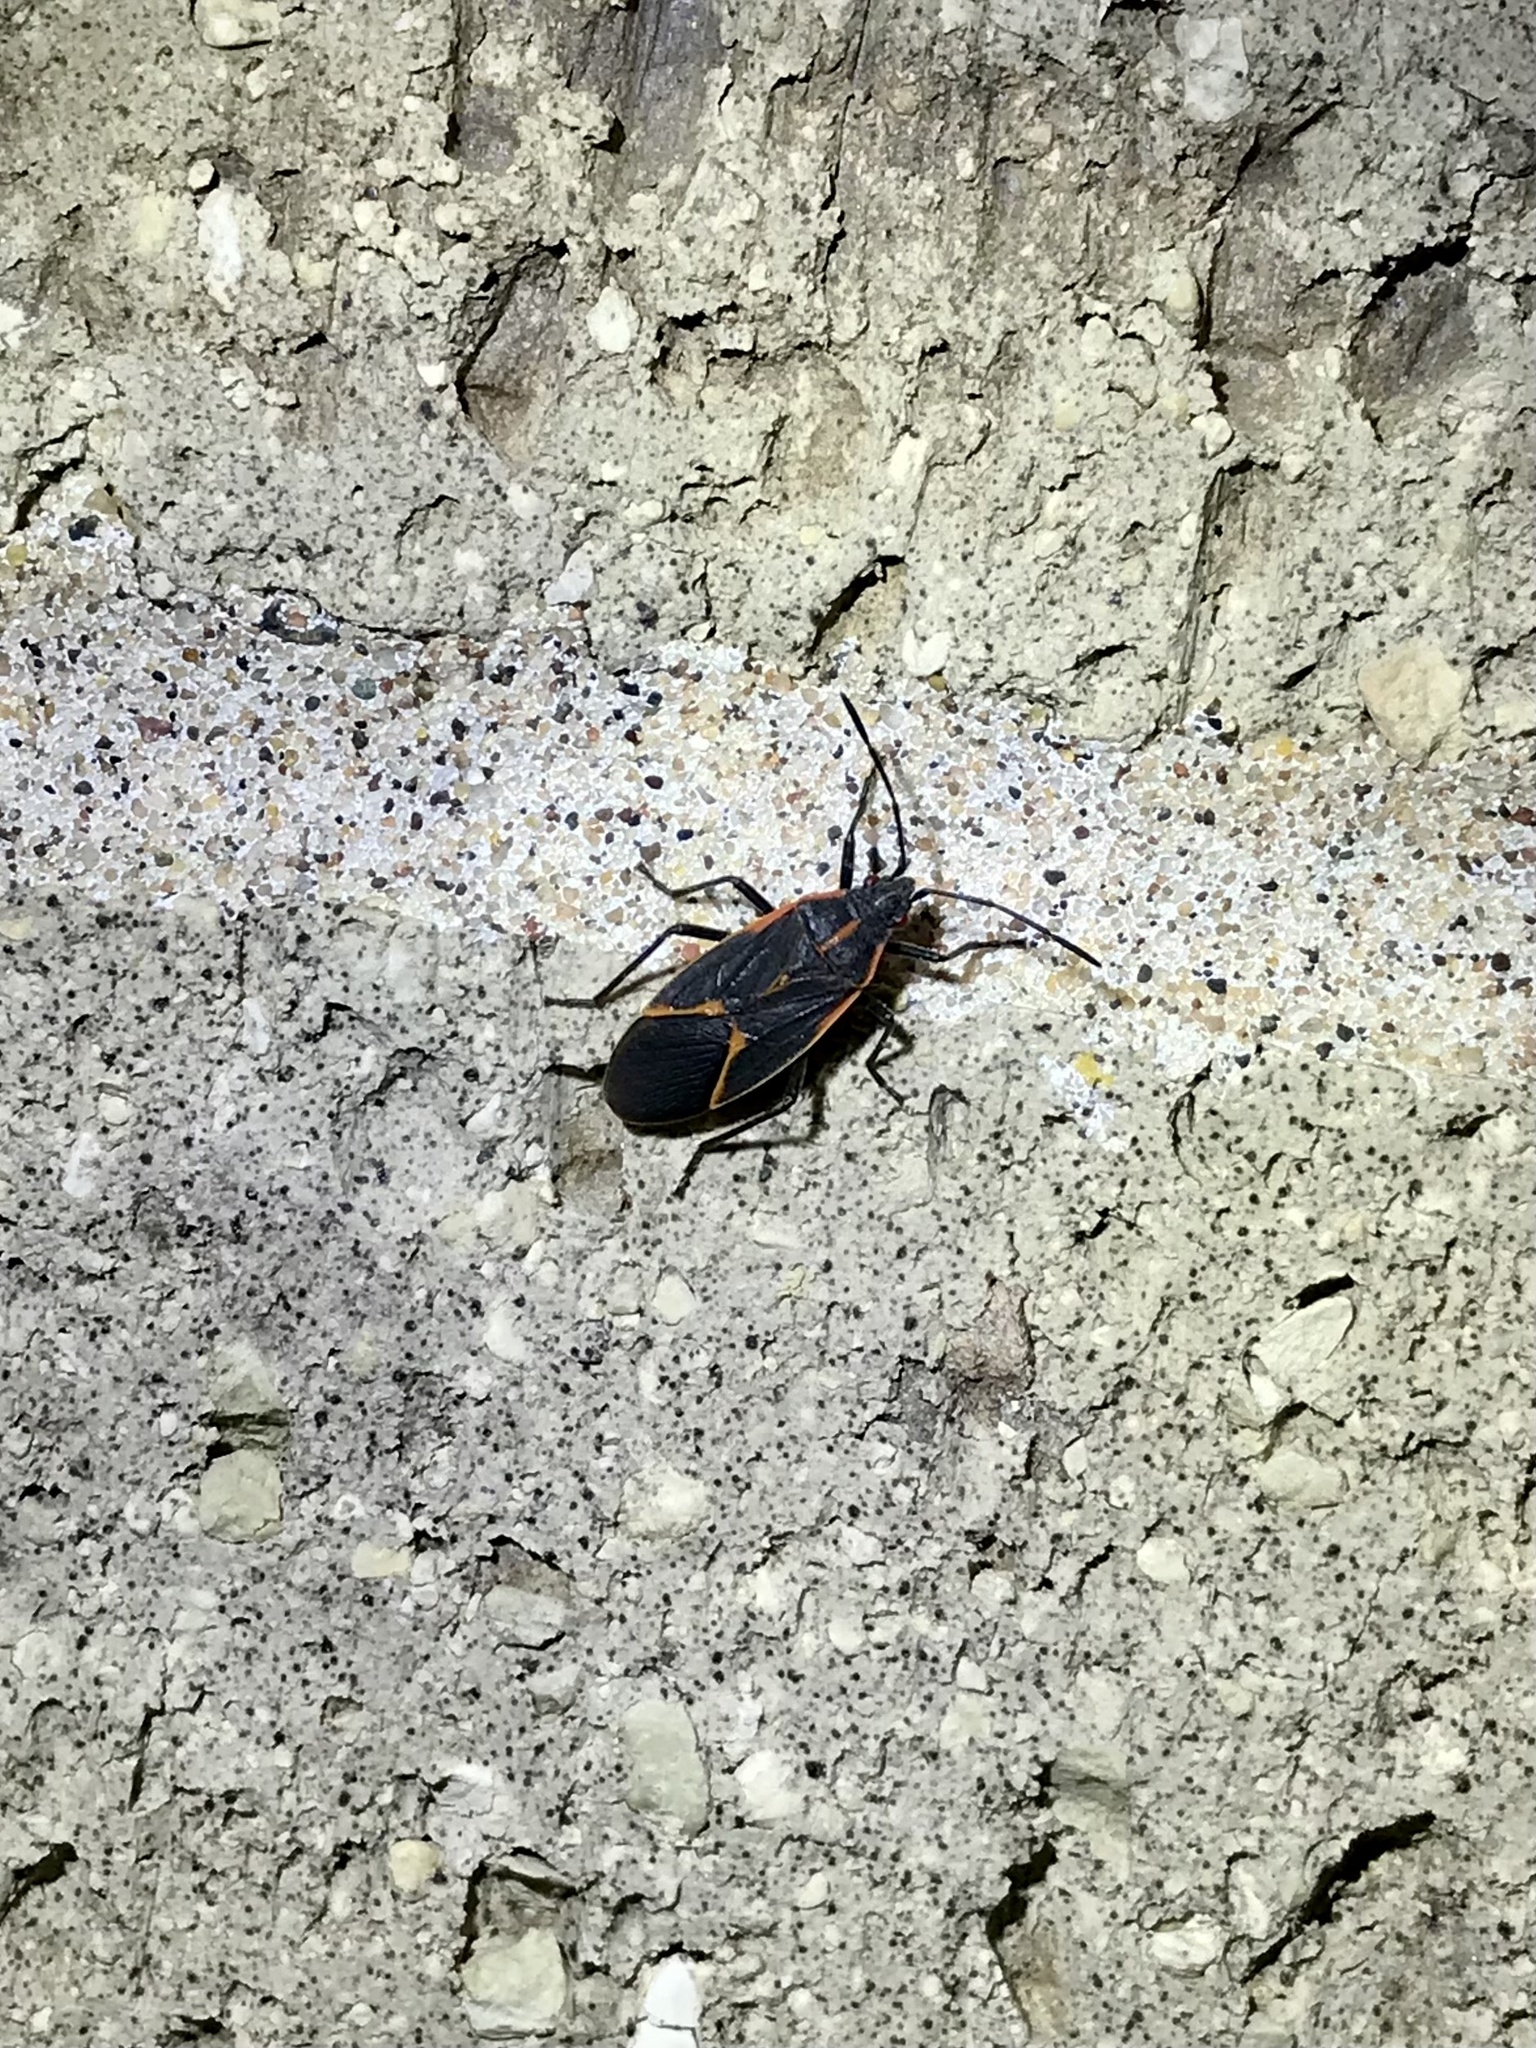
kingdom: Animalia
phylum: Arthropoda
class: Insecta
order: Hemiptera
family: Rhopalidae
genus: Boisea
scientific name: Boisea trivittata
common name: Boxelder bug
